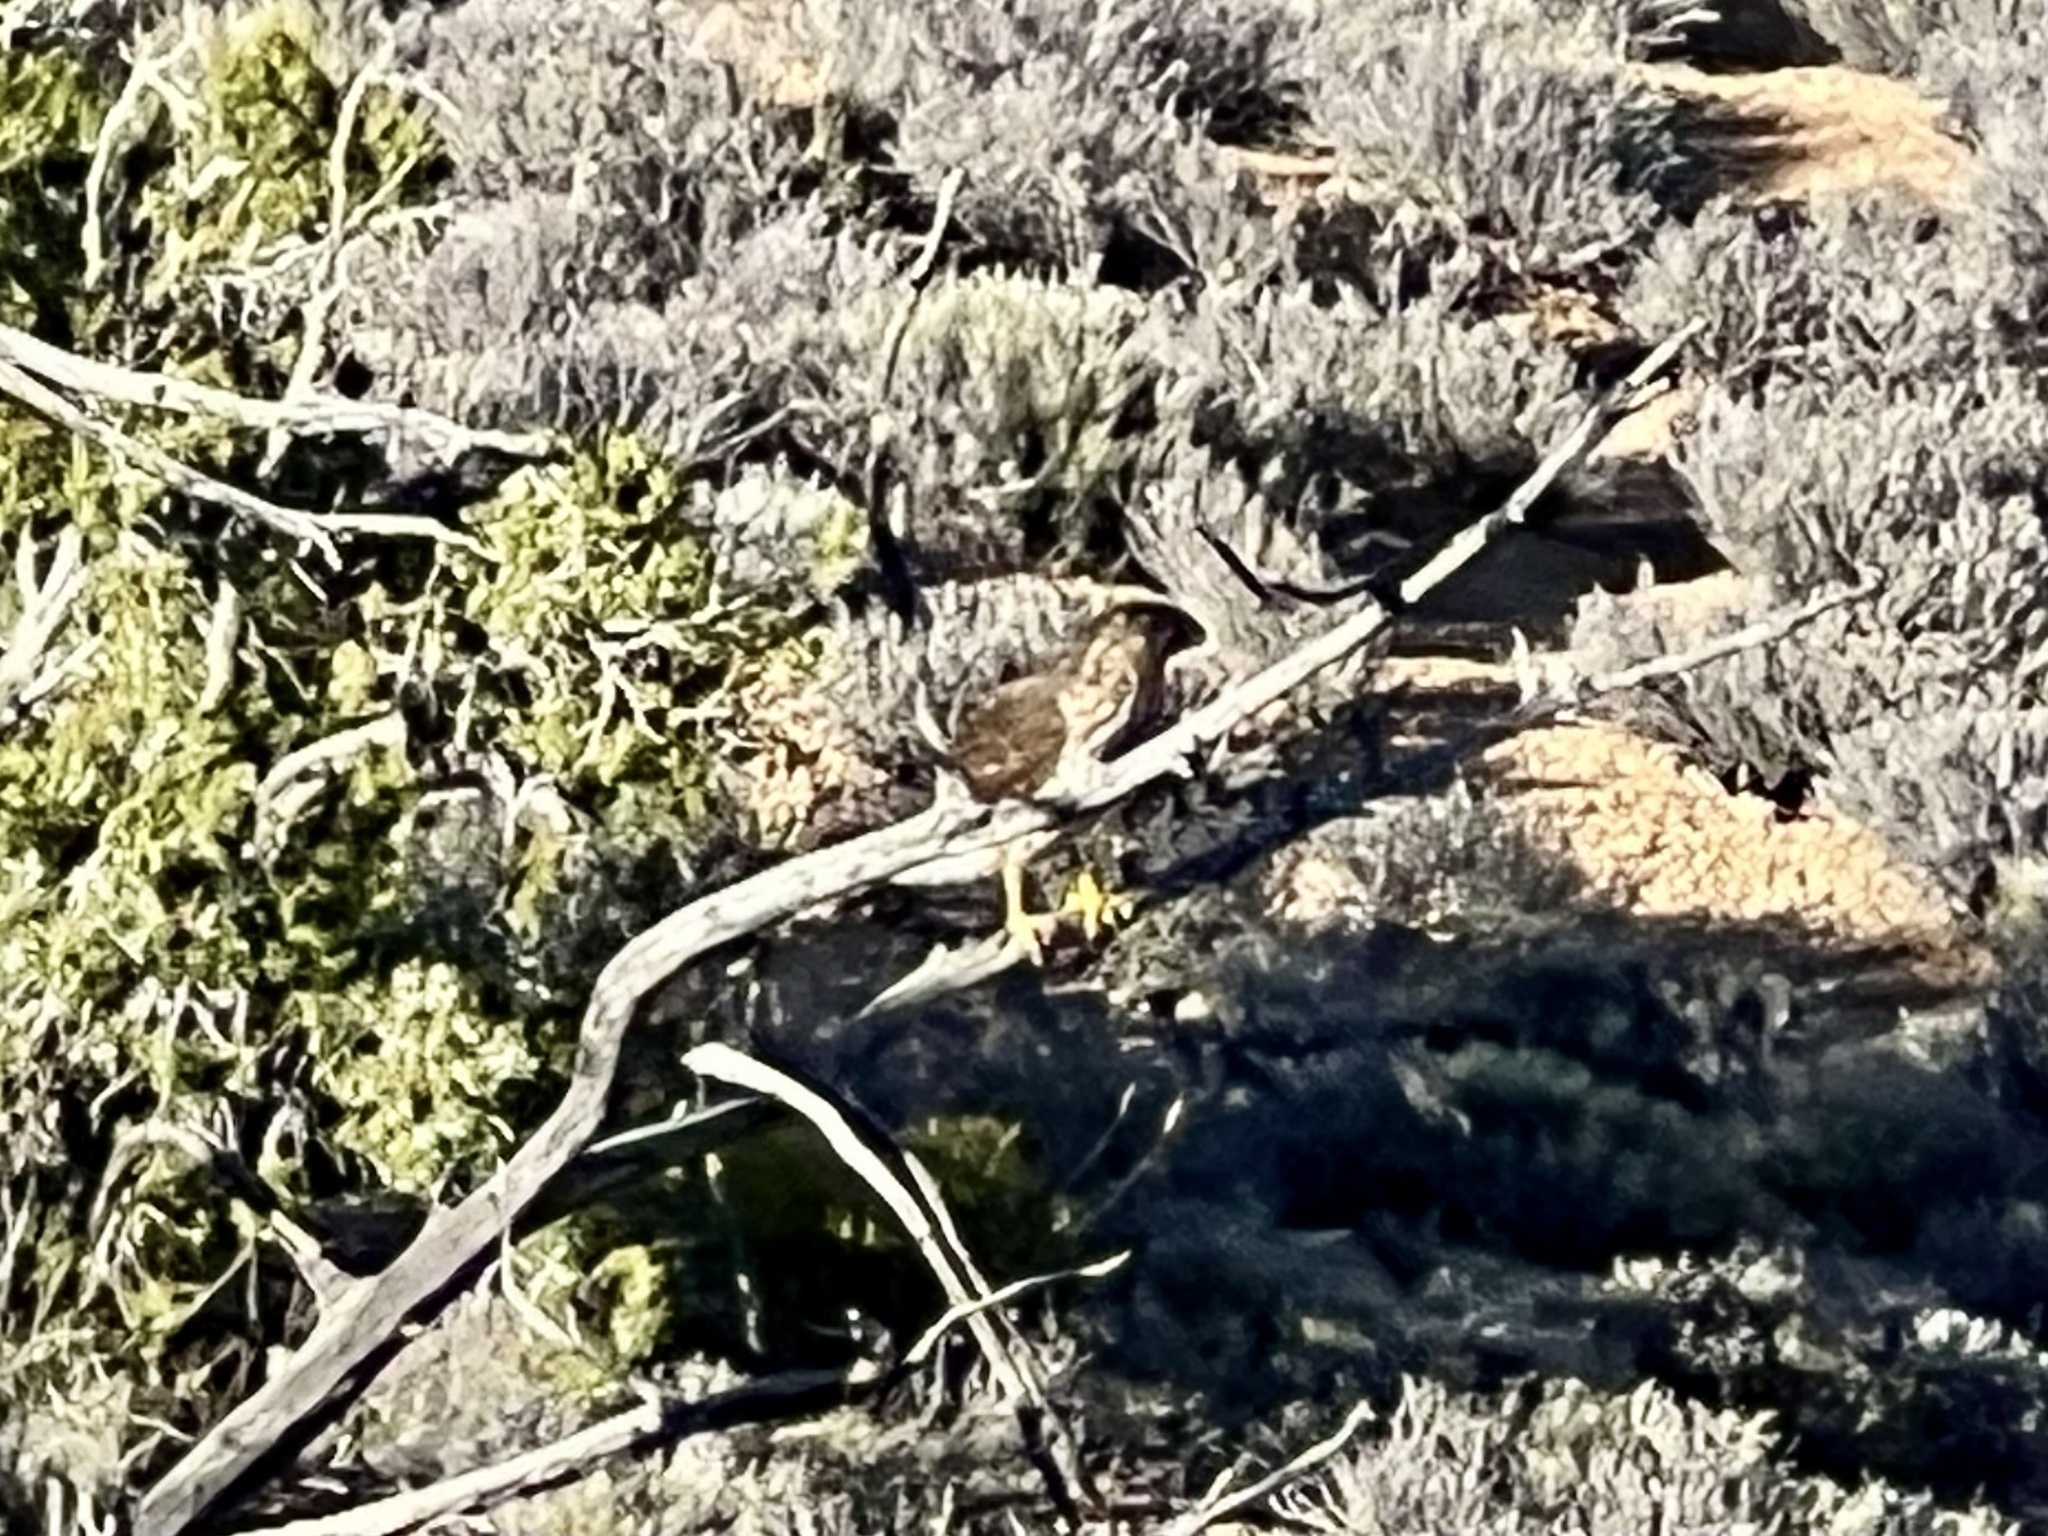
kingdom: Animalia
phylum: Chordata
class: Aves
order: Accipitriformes
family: Accipitridae
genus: Accipiter
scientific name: Accipiter cooperii
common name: Cooper's hawk
